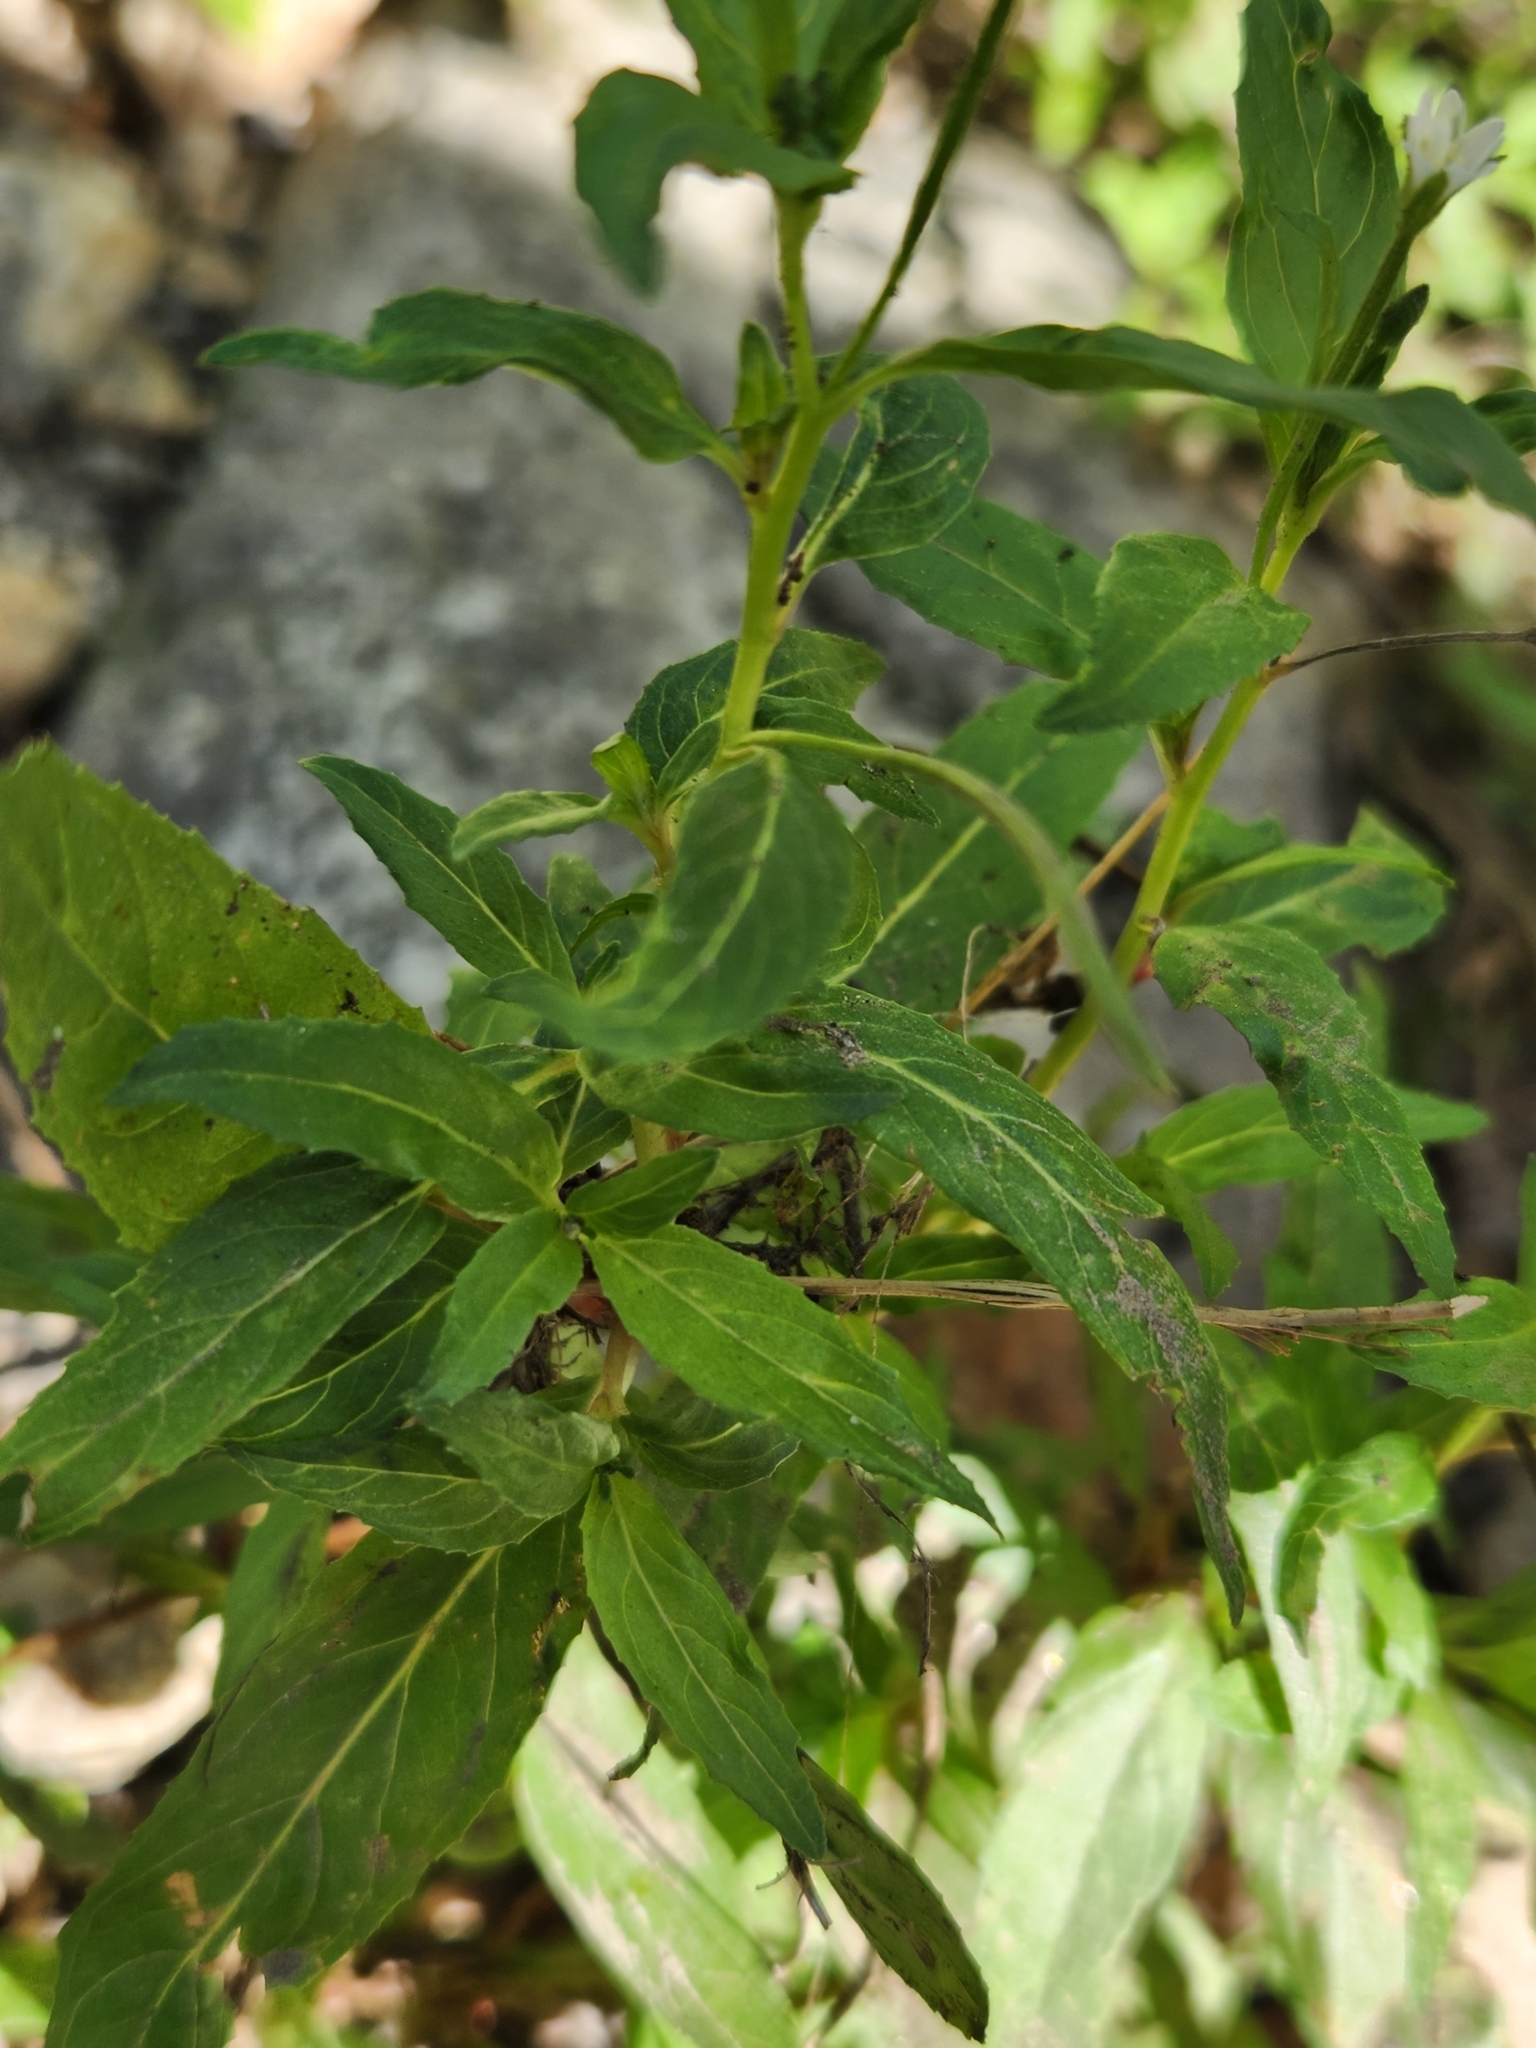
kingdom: Plantae
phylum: Tracheophyta
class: Magnoliopsida
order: Myrtales
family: Onagraceae
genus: Epilobium
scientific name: Epilobium ciliatum
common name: American willowherb
